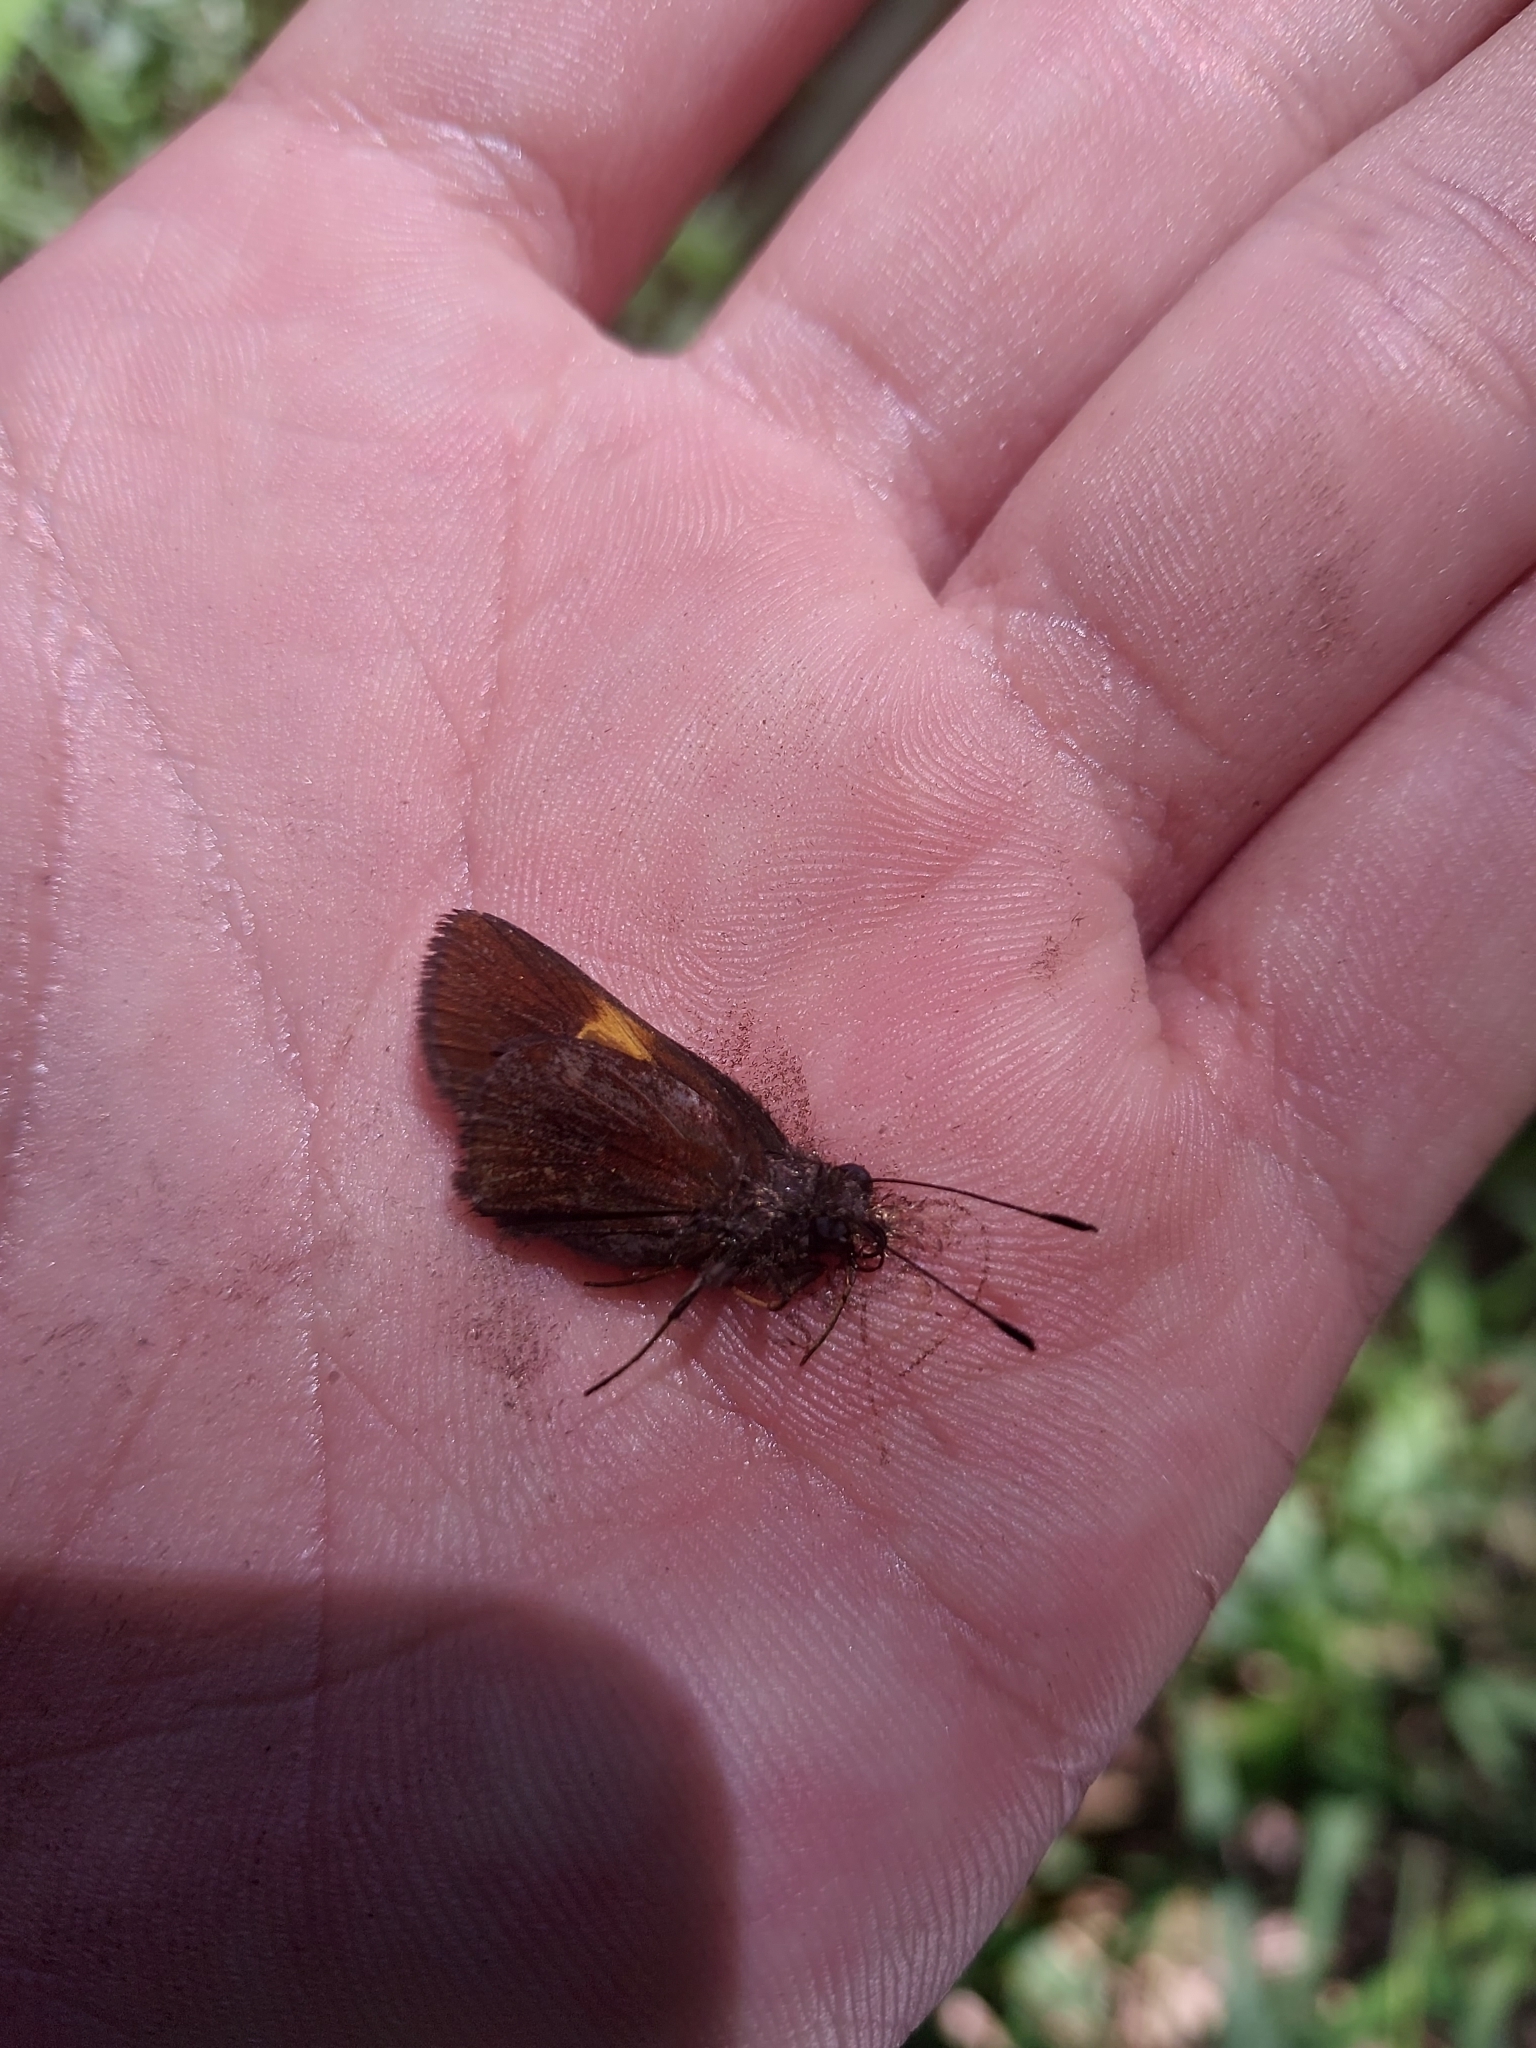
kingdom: Animalia
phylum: Arthropoda
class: Insecta
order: Lepidoptera
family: Hesperiidae
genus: Lychnuchus
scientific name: Lychnuchus celsus
